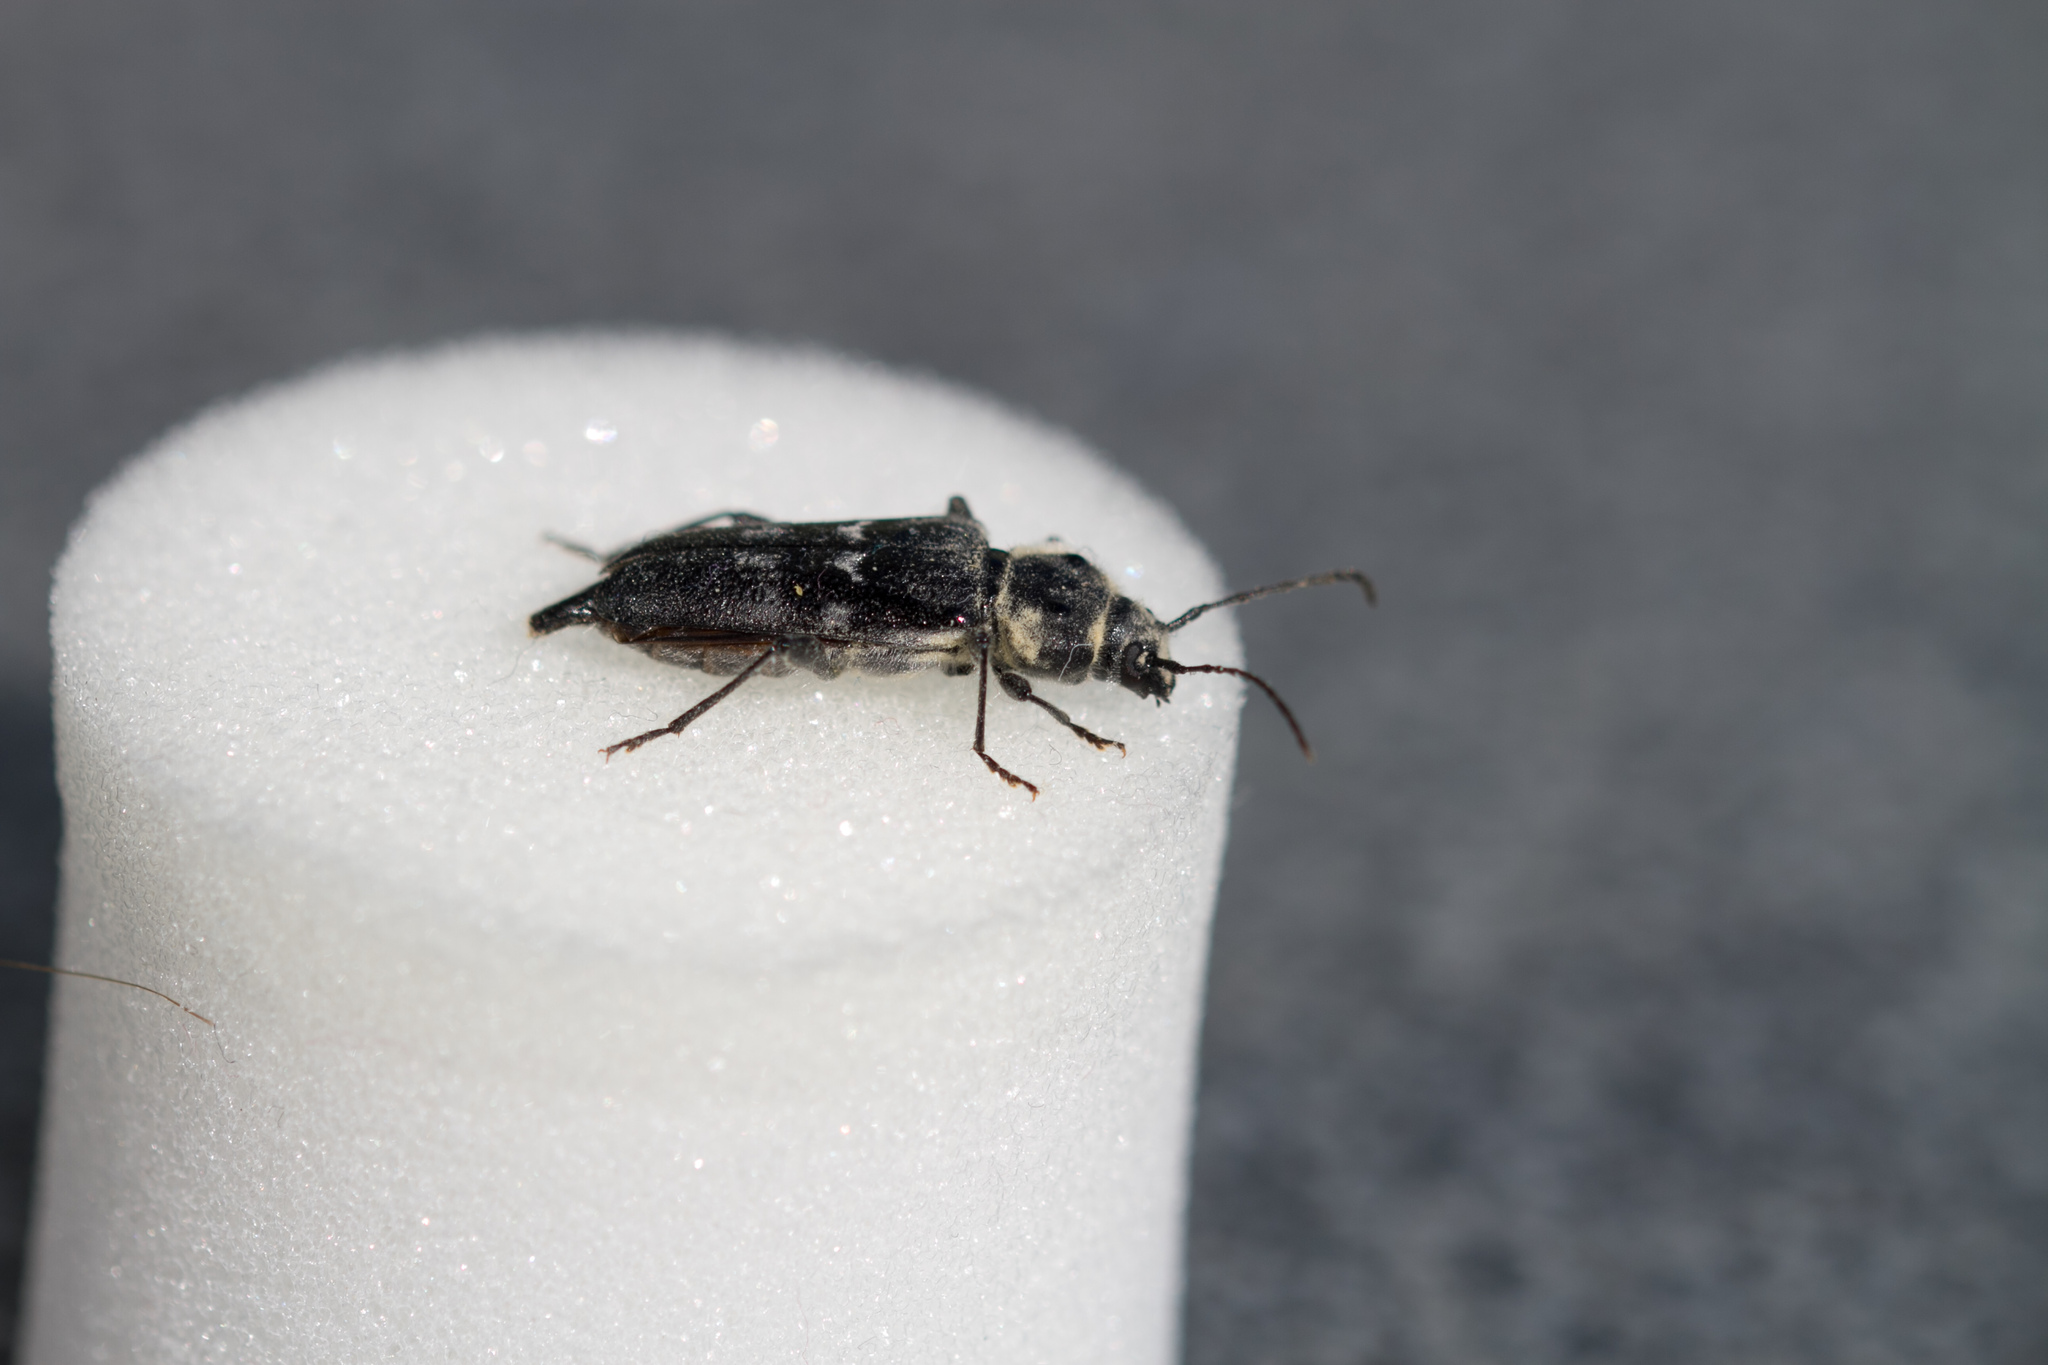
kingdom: Animalia
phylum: Arthropoda
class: Insecta
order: Coleoptera
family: Cerambycidae
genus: Hylotrupes
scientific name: Hylotrupes bajulus
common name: Old house borer
